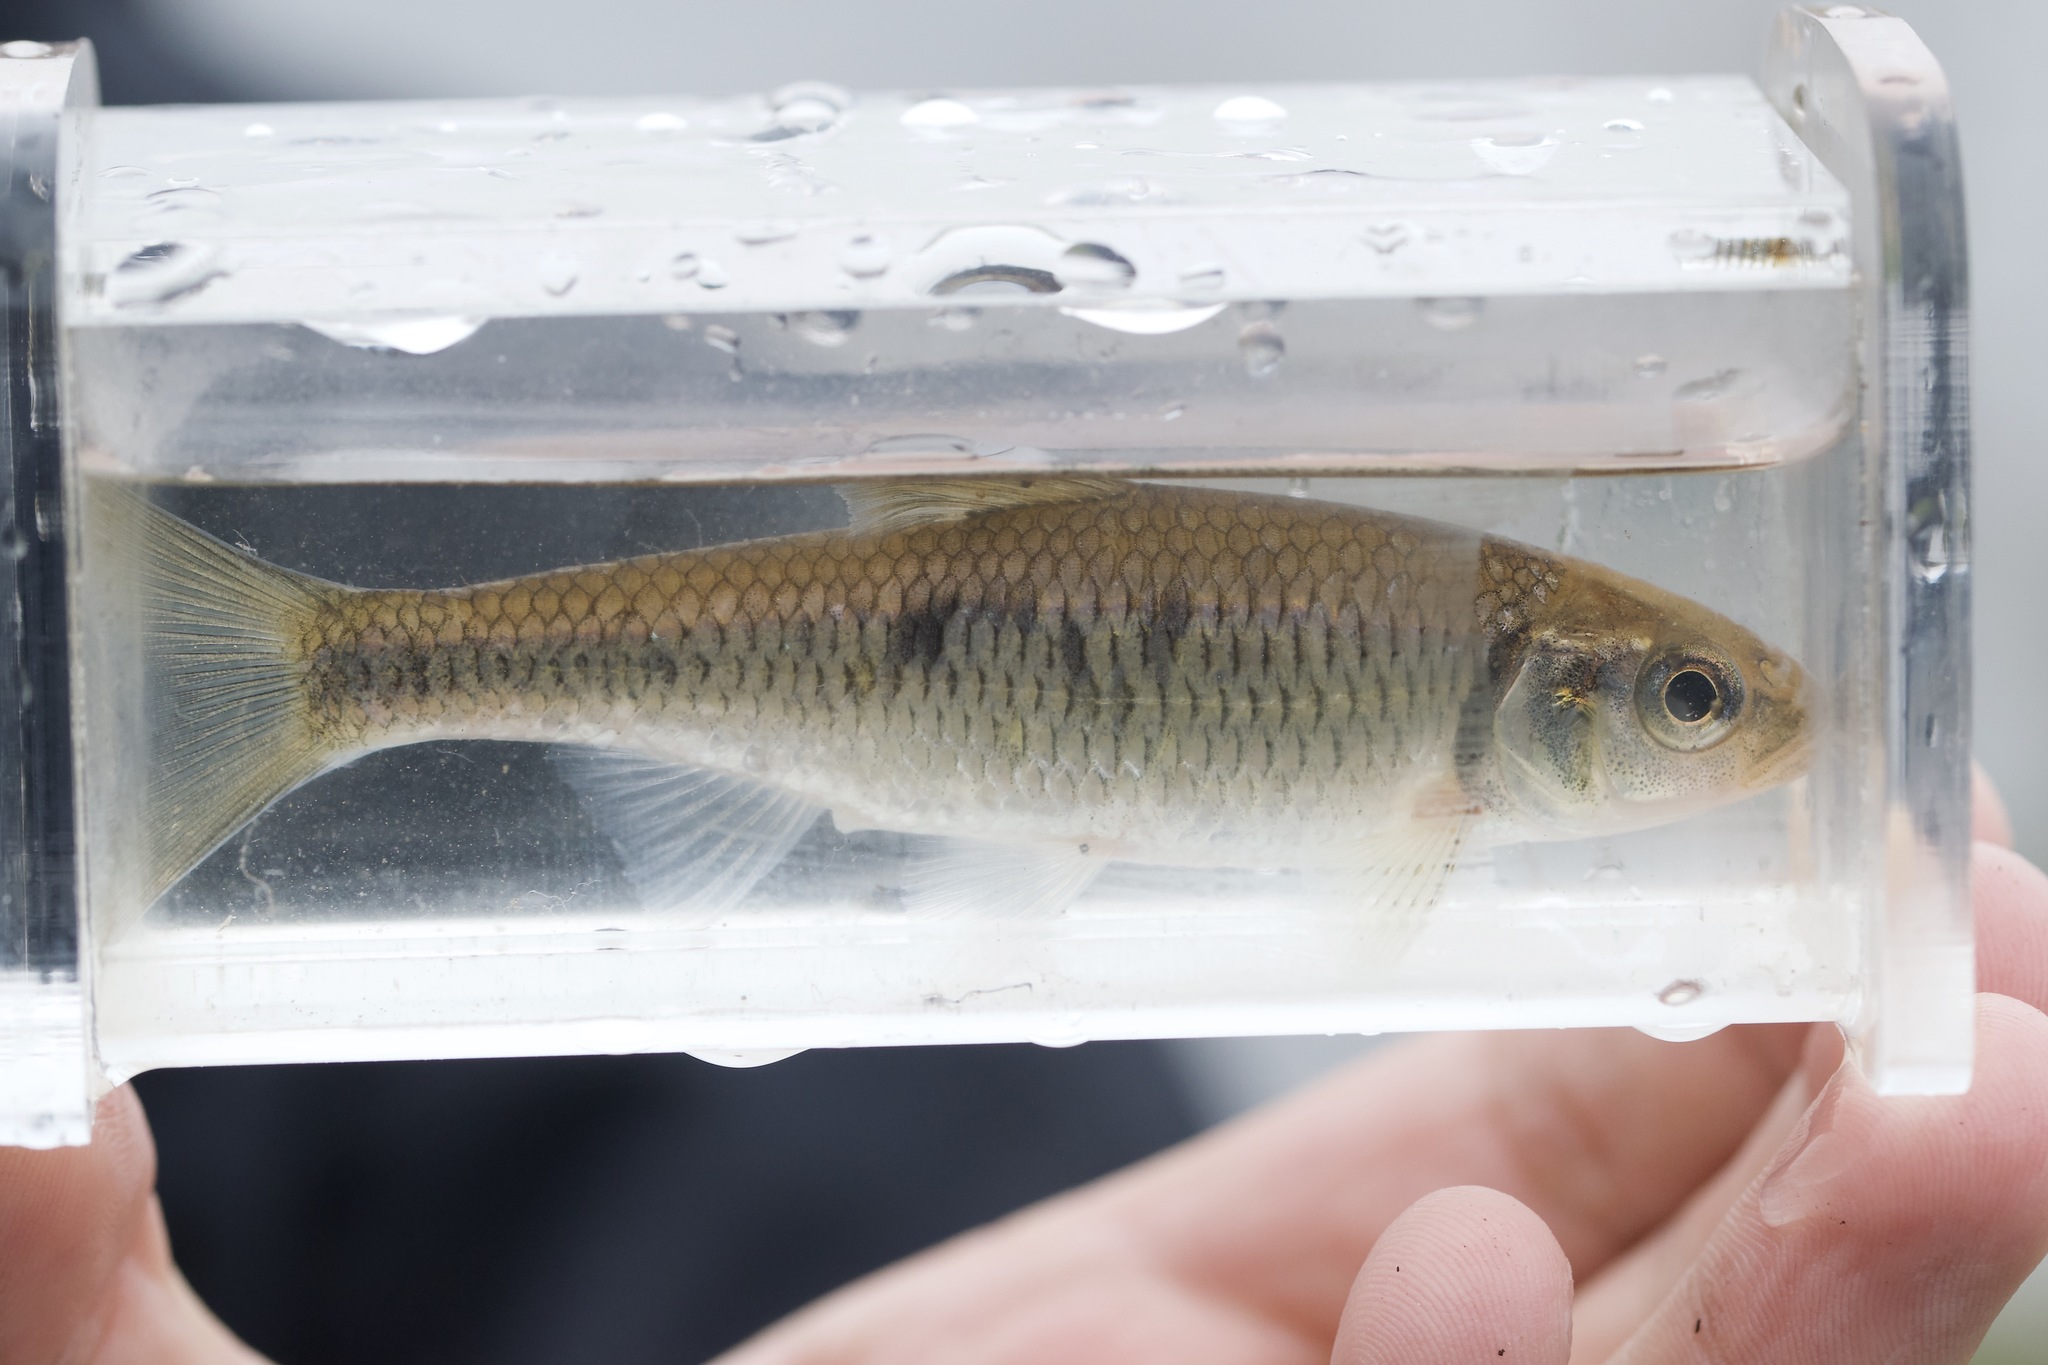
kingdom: Animalia
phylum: Chordata
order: Cypriniformes
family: Cyprinidae
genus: Luxilus
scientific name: Luxilus chrysocephalus
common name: Striped shiner
